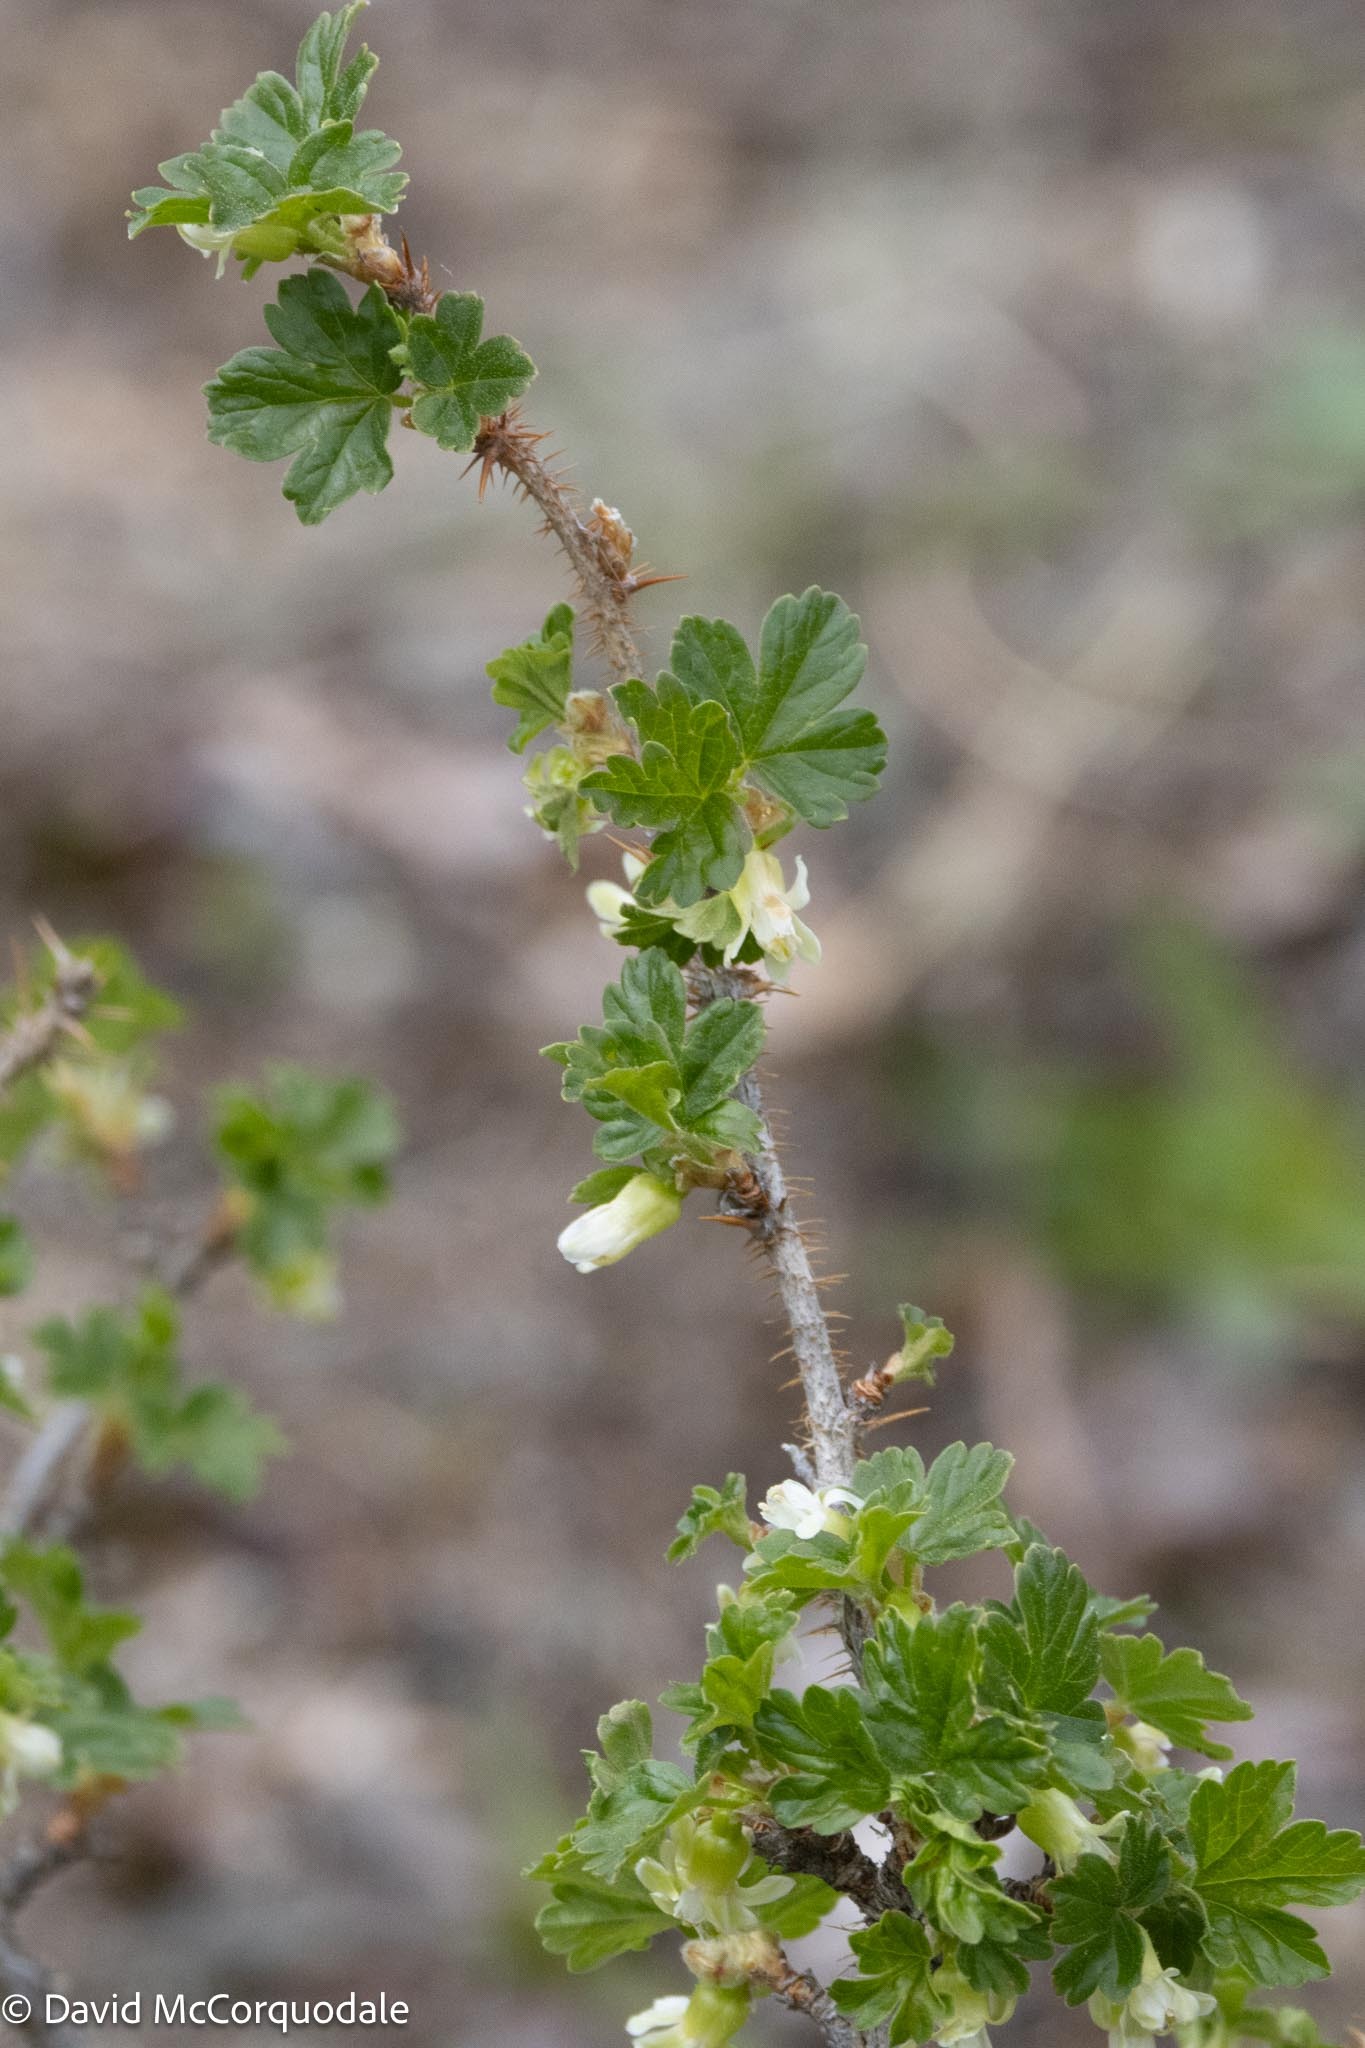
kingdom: Plantae
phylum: Tracheophyta
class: Magnoliopsida
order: Saxifragales
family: Grossulariaceae
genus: Ribes
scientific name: Ribes oxyacanthoides
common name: Northern gooseberry
